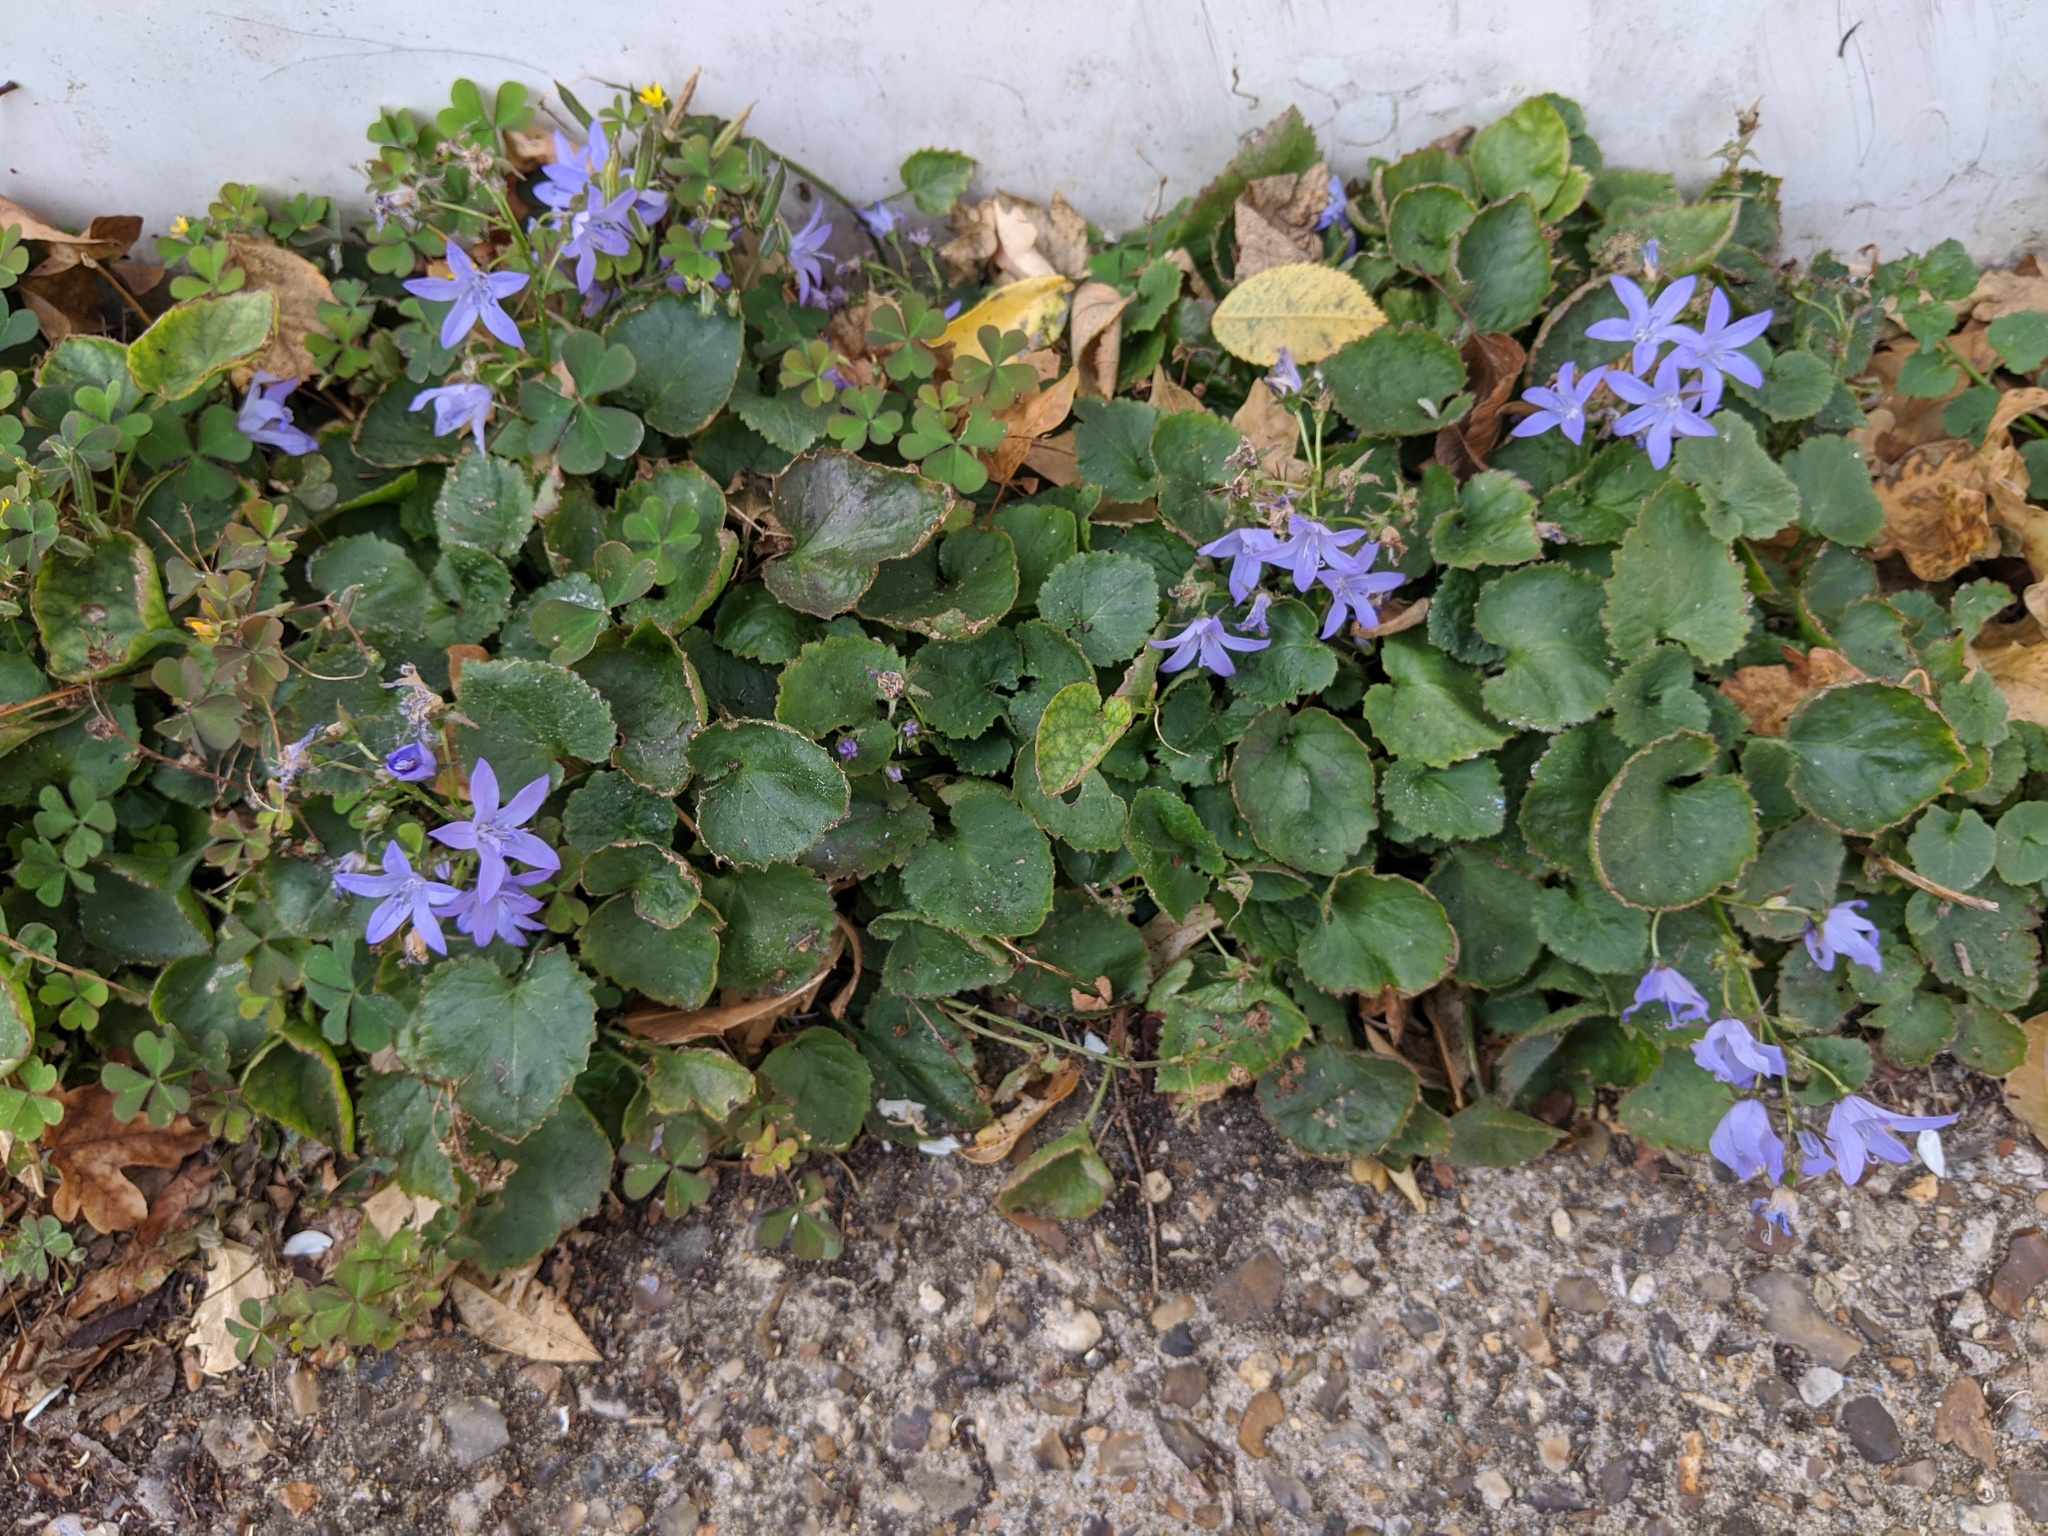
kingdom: Plantae
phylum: Tracheophyta
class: Magnoliopsida
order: Asterales
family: Campanulaceae
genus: Campanula
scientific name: Campanula poscharskyana
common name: Trailing bellflower
